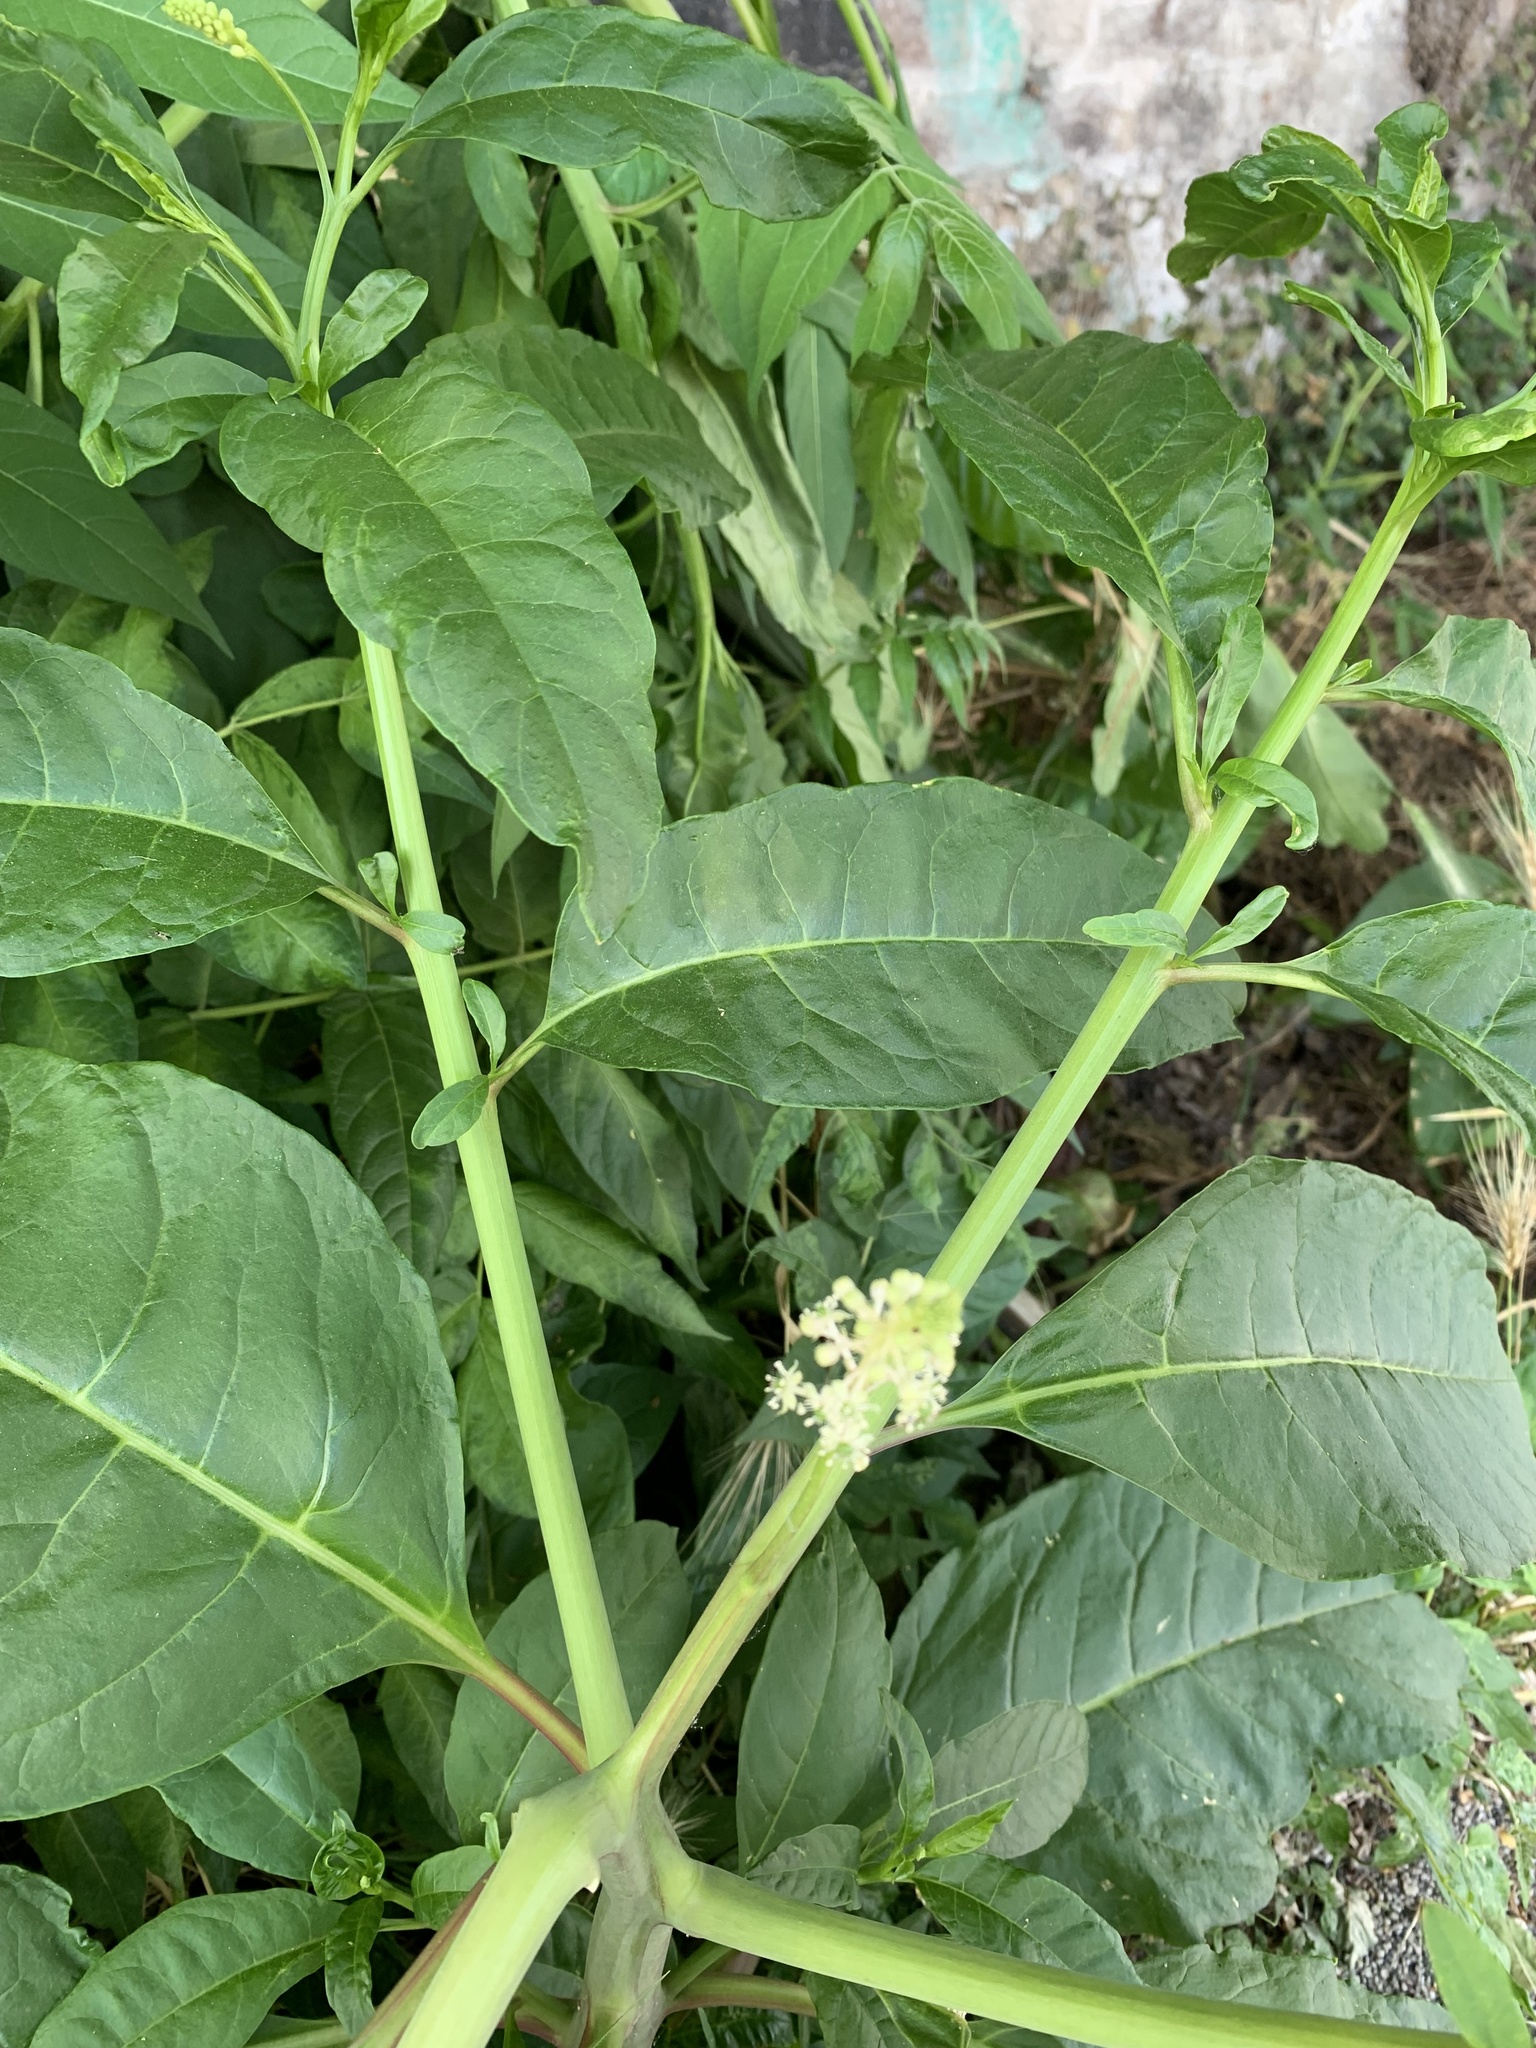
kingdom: Plantae
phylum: Tracheophyta
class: Magnoliopsida
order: Caryophyllales
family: Phytolaccaceae
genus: Phytolacca
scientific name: Phytolacca americana
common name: American pokeweed
